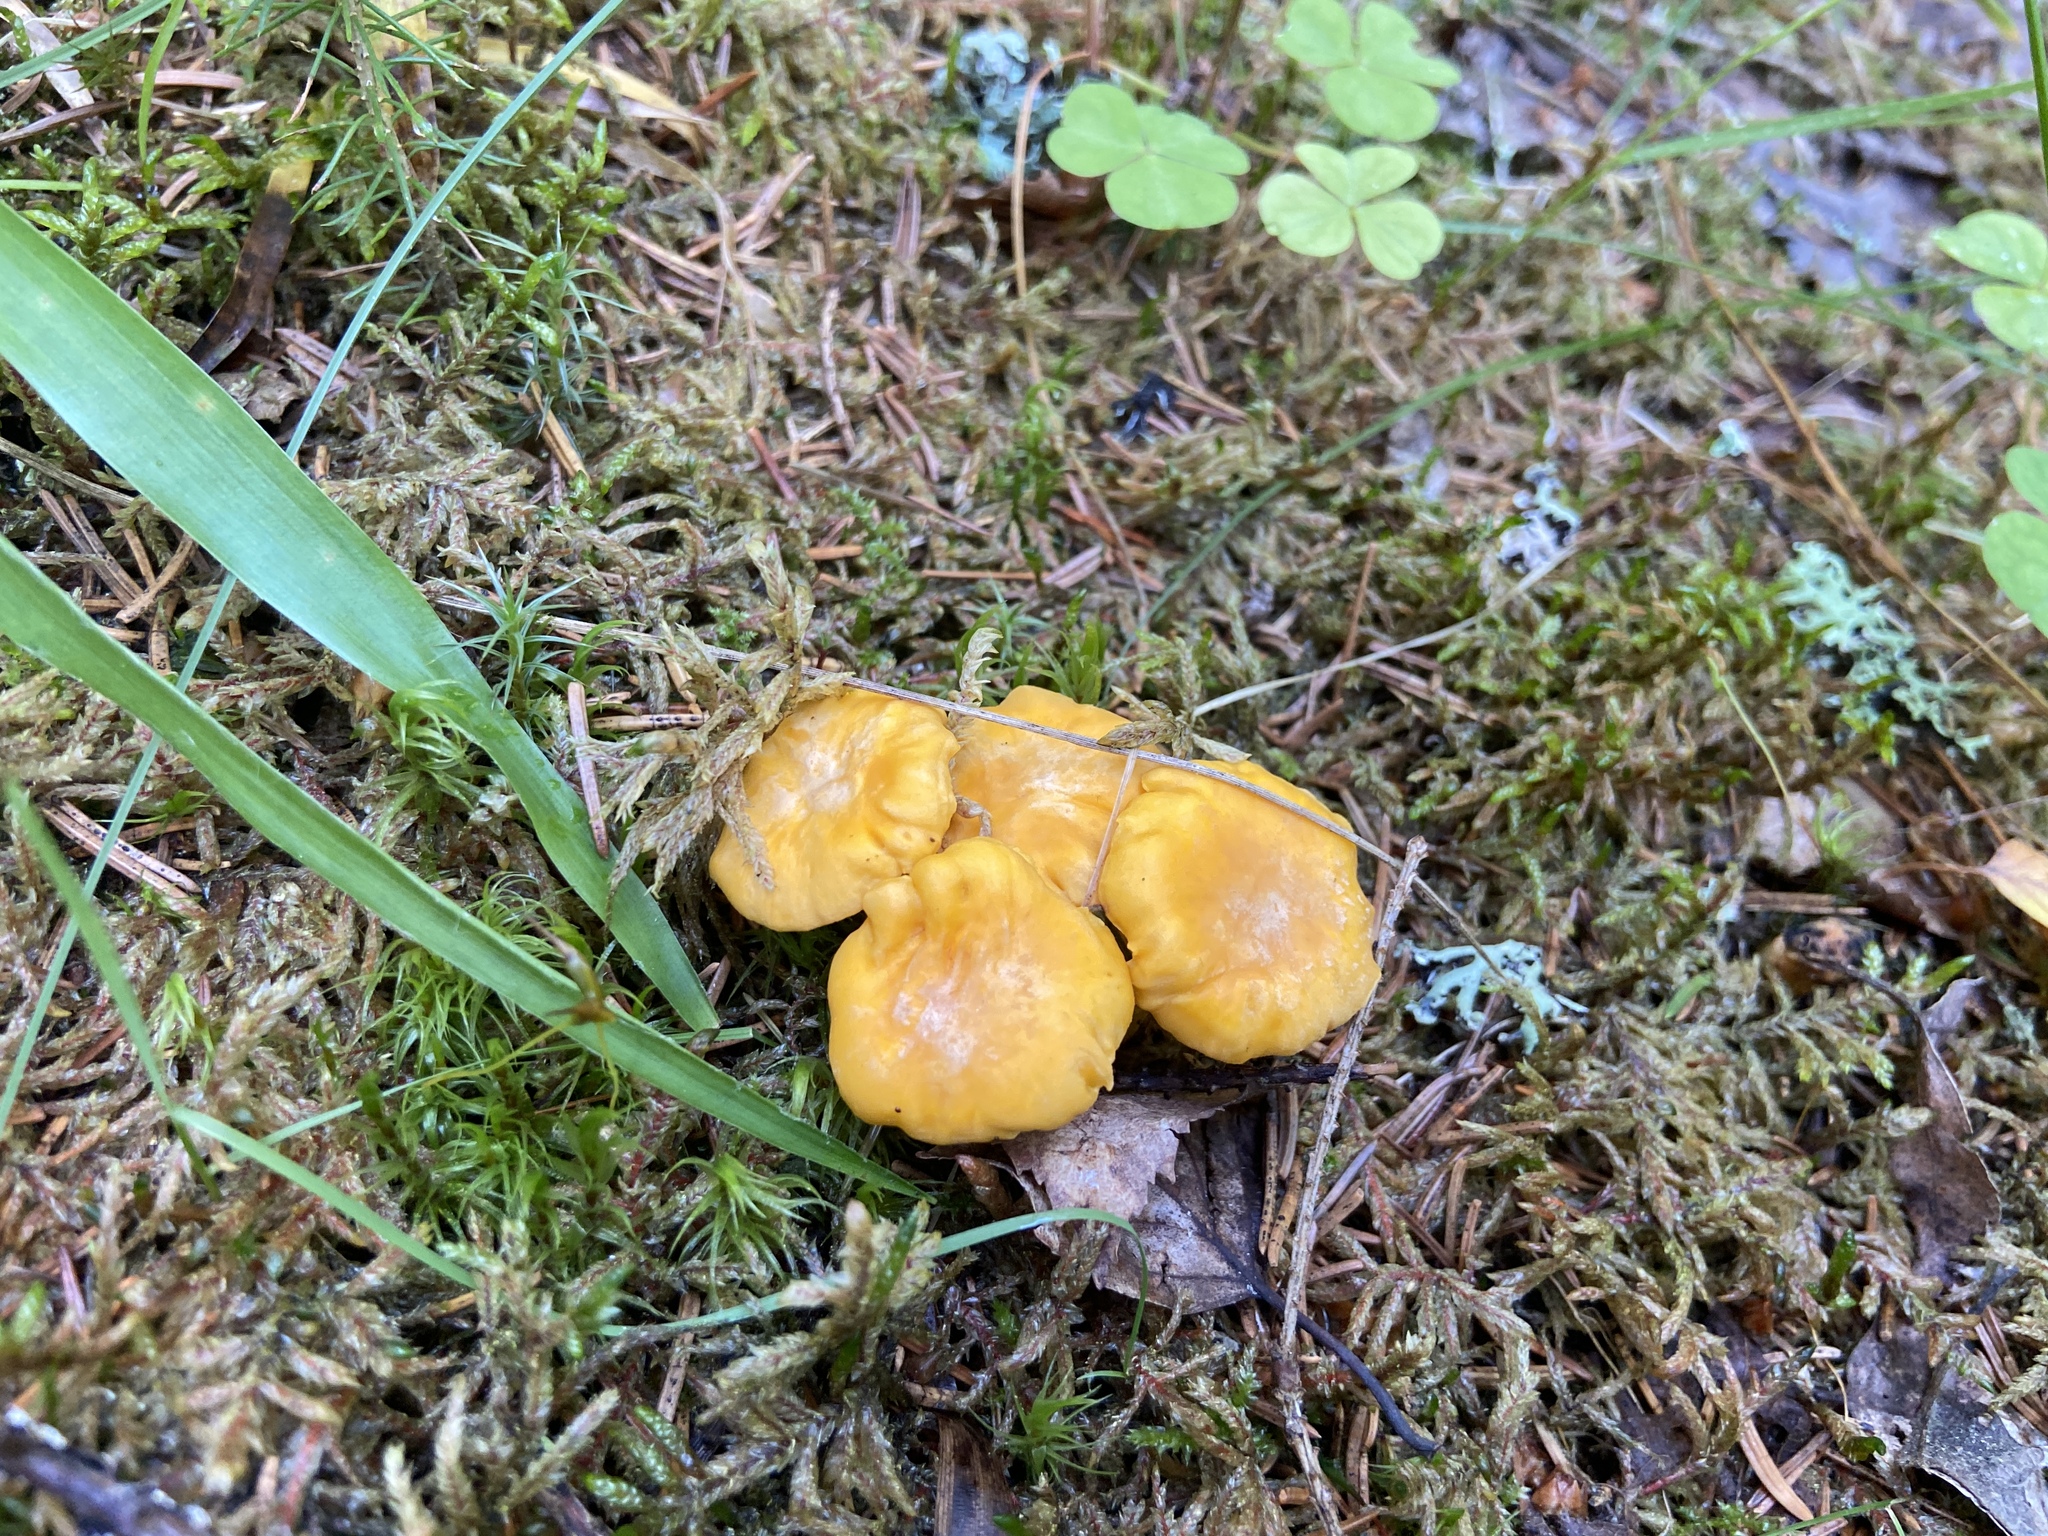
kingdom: Fungi
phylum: Basidiomycota
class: Agaricomycetes
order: Cantharellales
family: Hydnaceae
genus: Cantharellus
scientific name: Cantharellus cibarius
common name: Chanterelle
